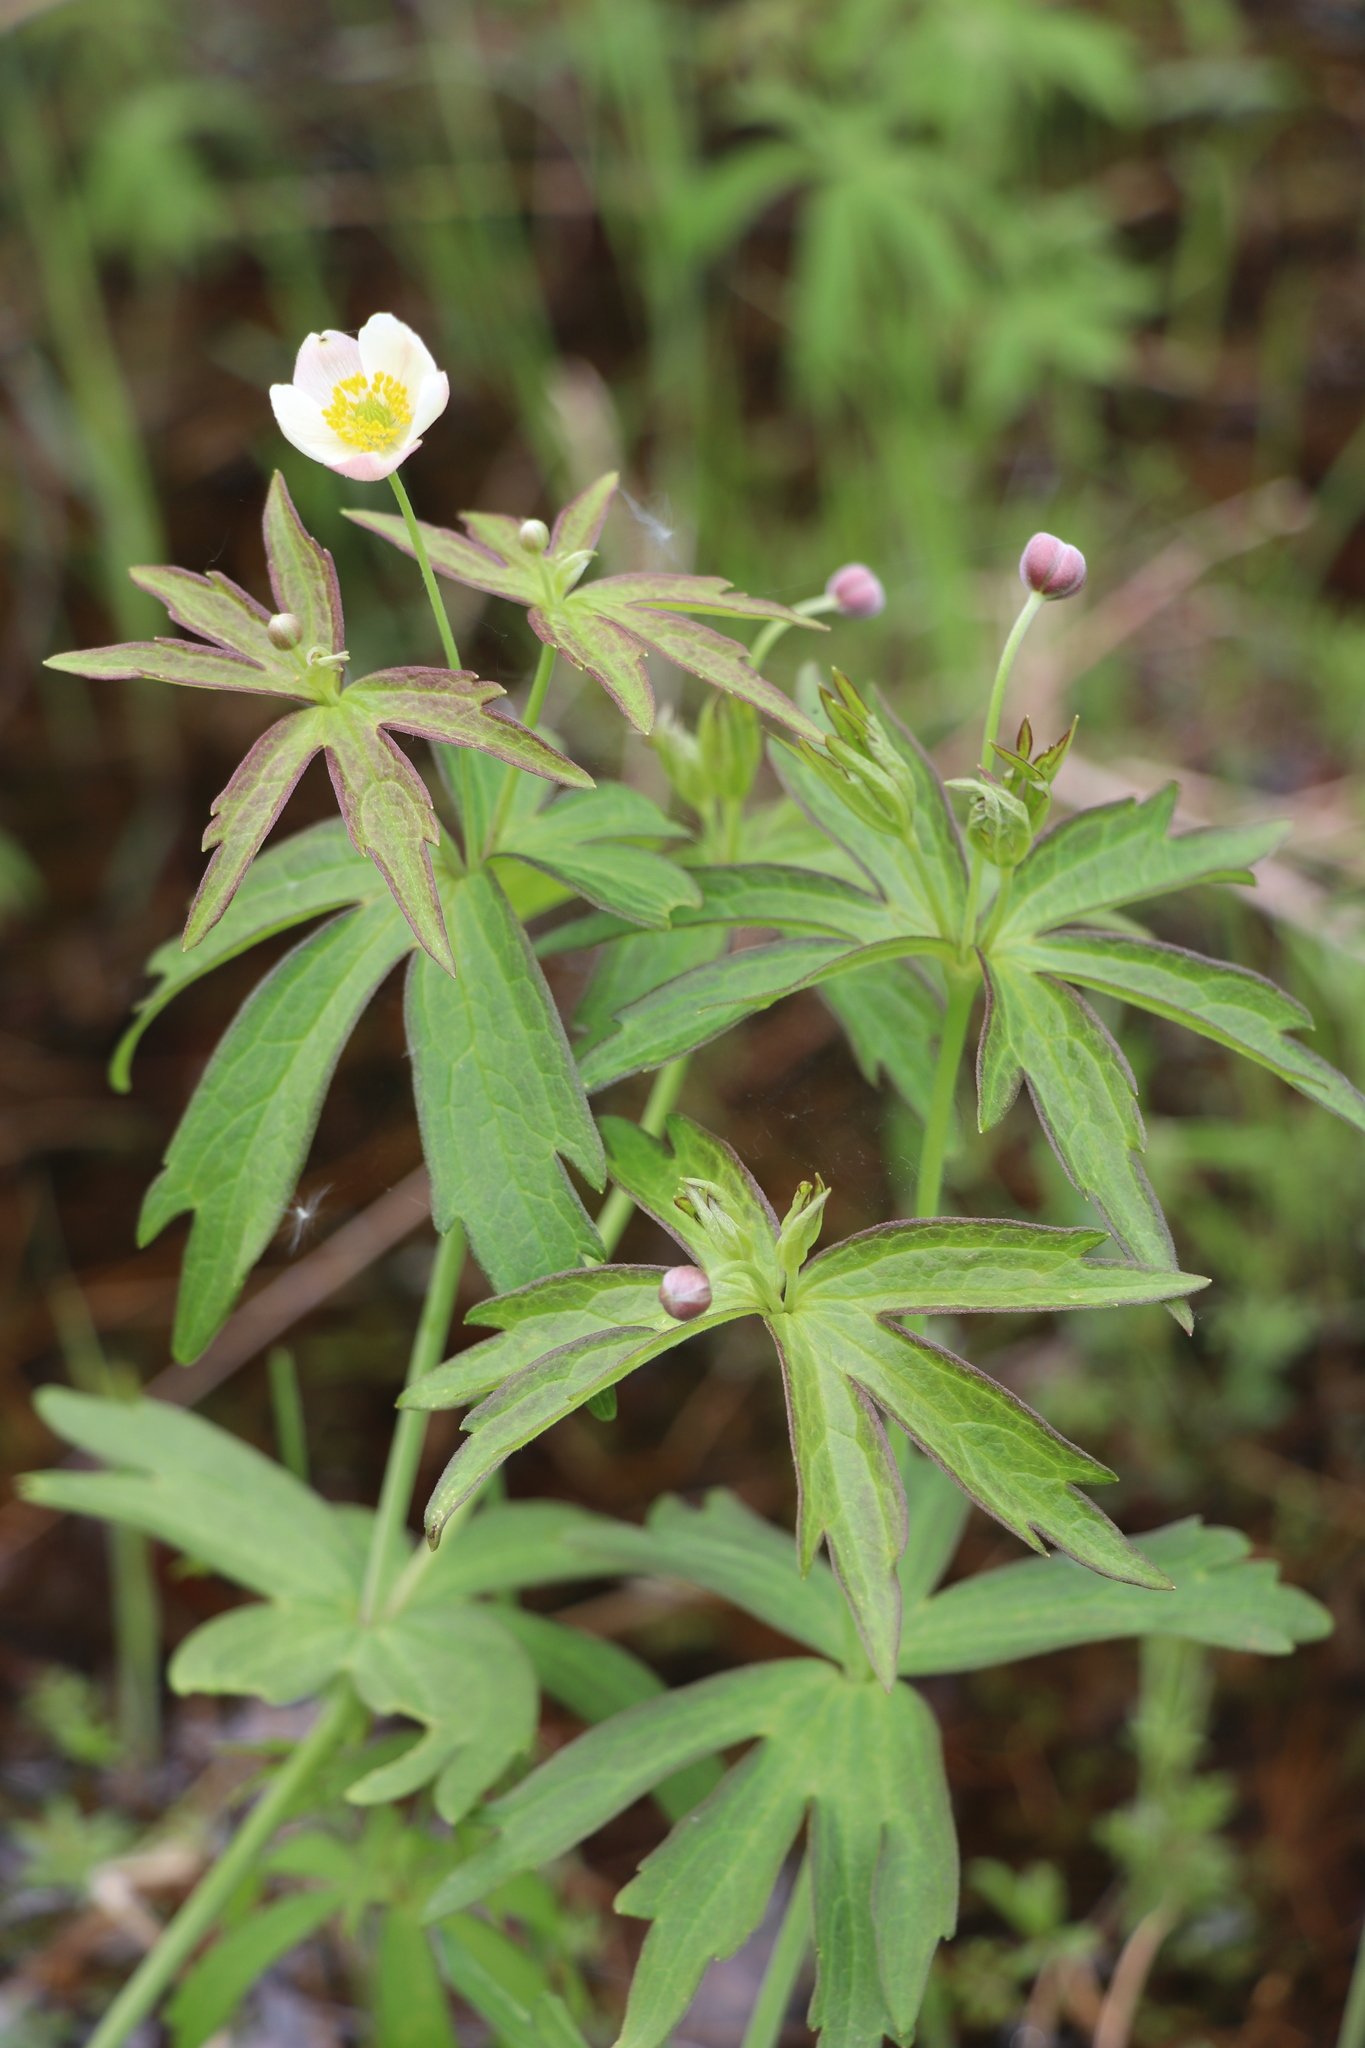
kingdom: Plantae
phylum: Tracheophyta
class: Magnoliopsida
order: Ranunculales
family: Ranunculaceae
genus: Anemonastrum
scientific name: Anemonastrum dichotomum
